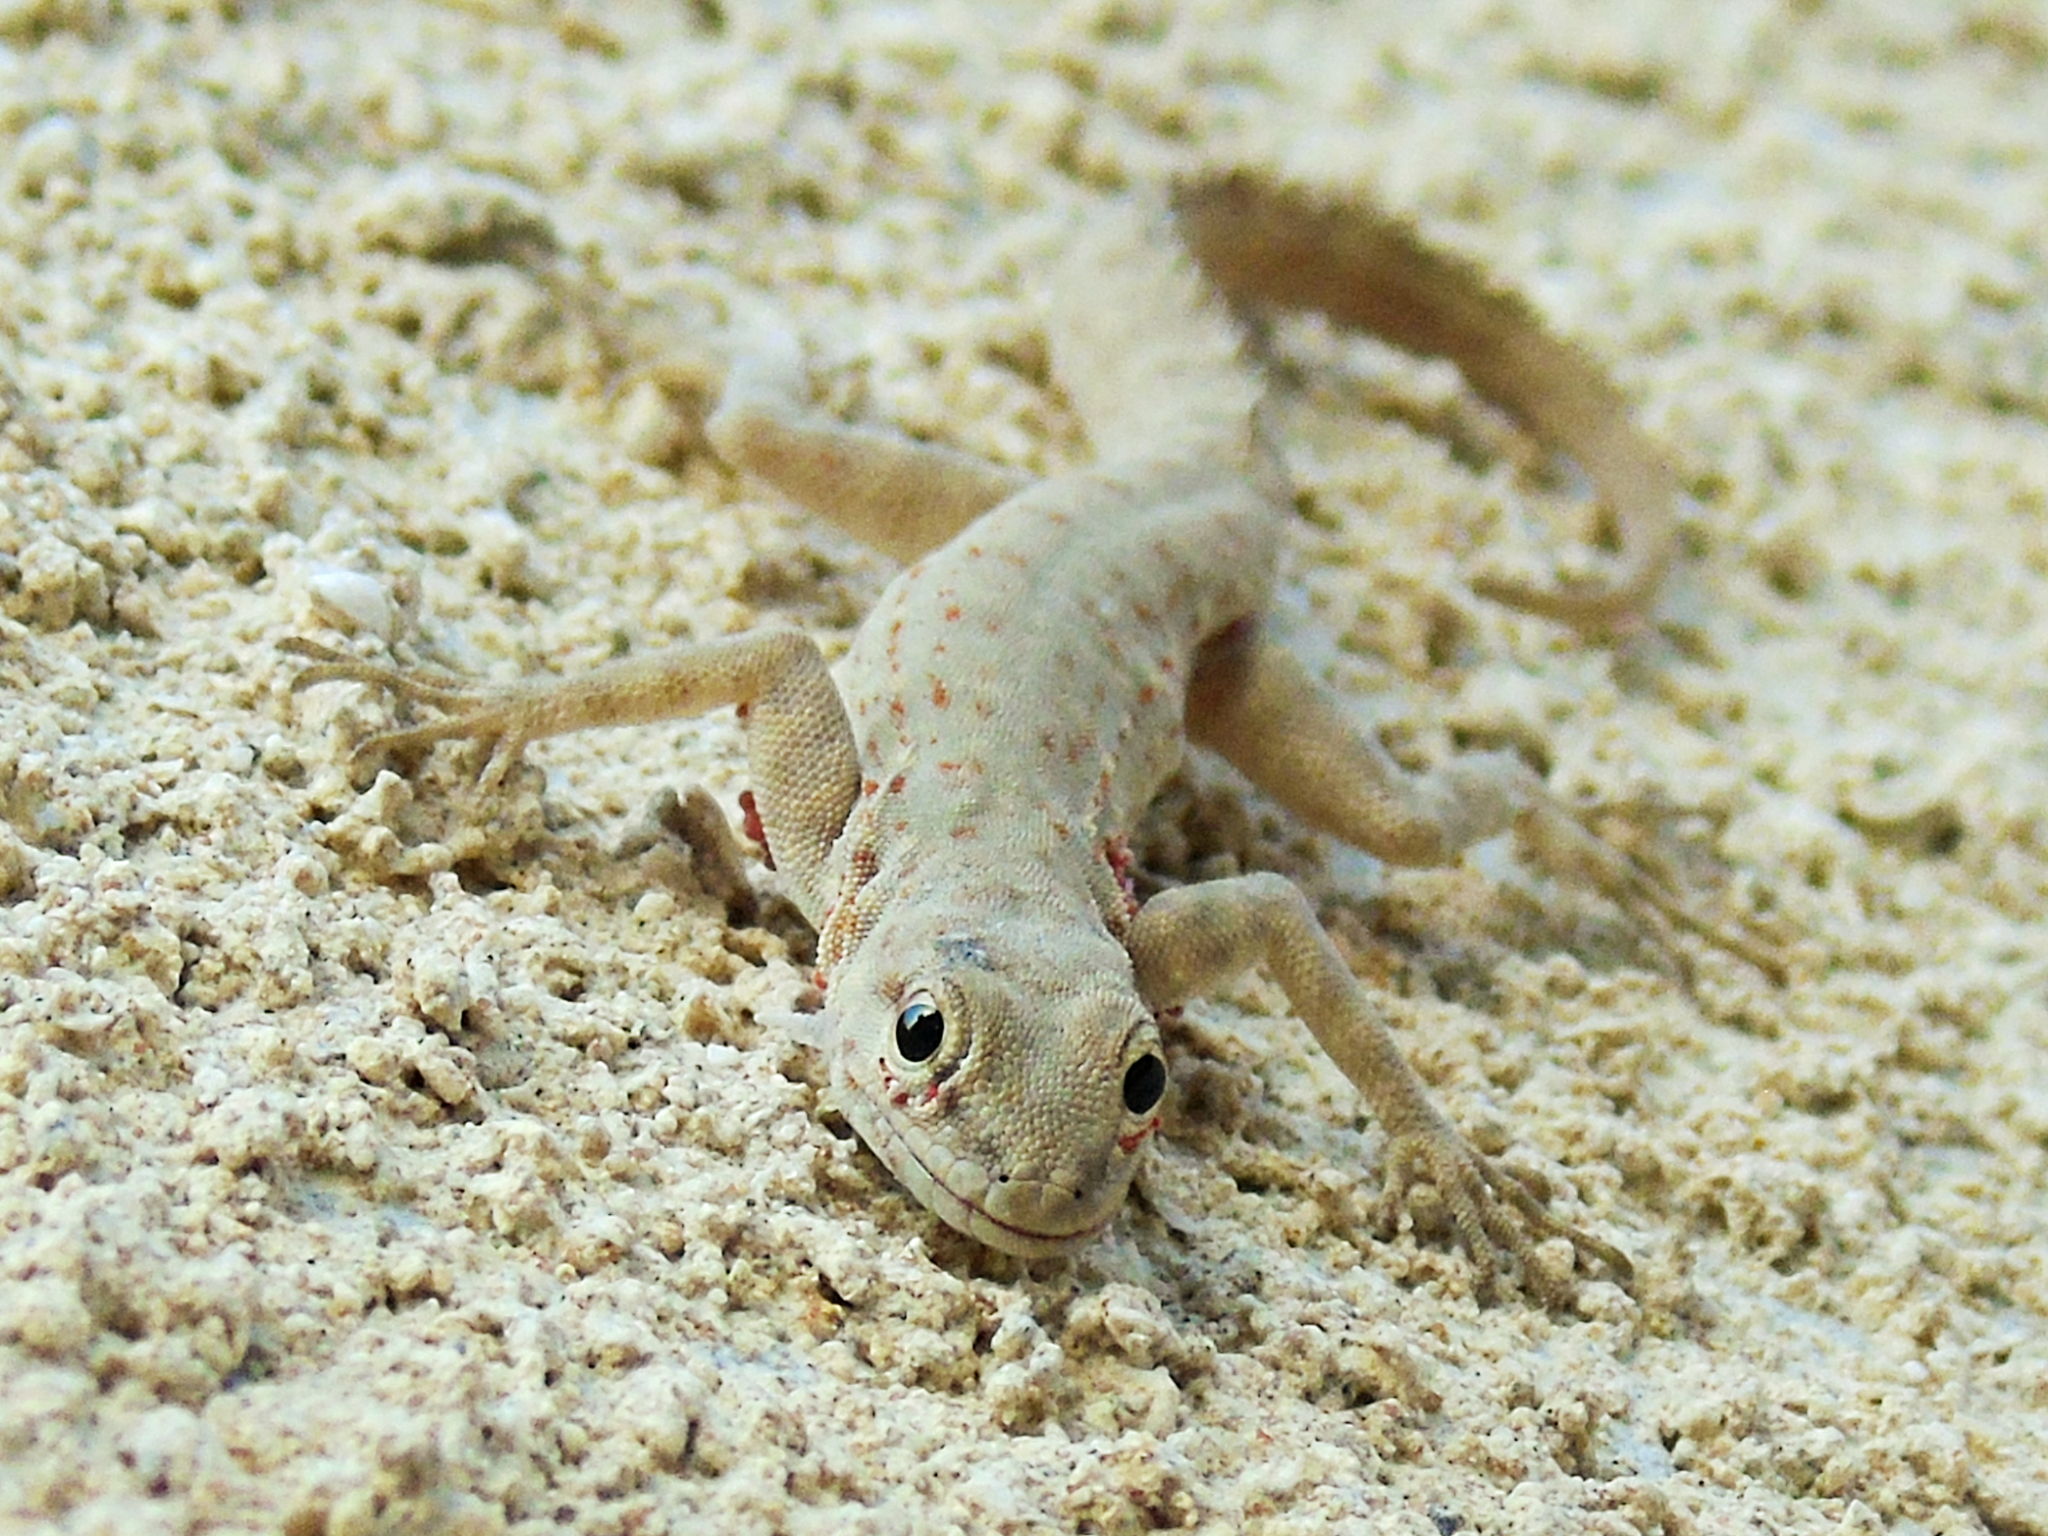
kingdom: Animalia
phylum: Chordata
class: Squamata
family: Sphaerodactylidae
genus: Pristurus
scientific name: Pristurus rupestris
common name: Blanford’s semaphore gecko
